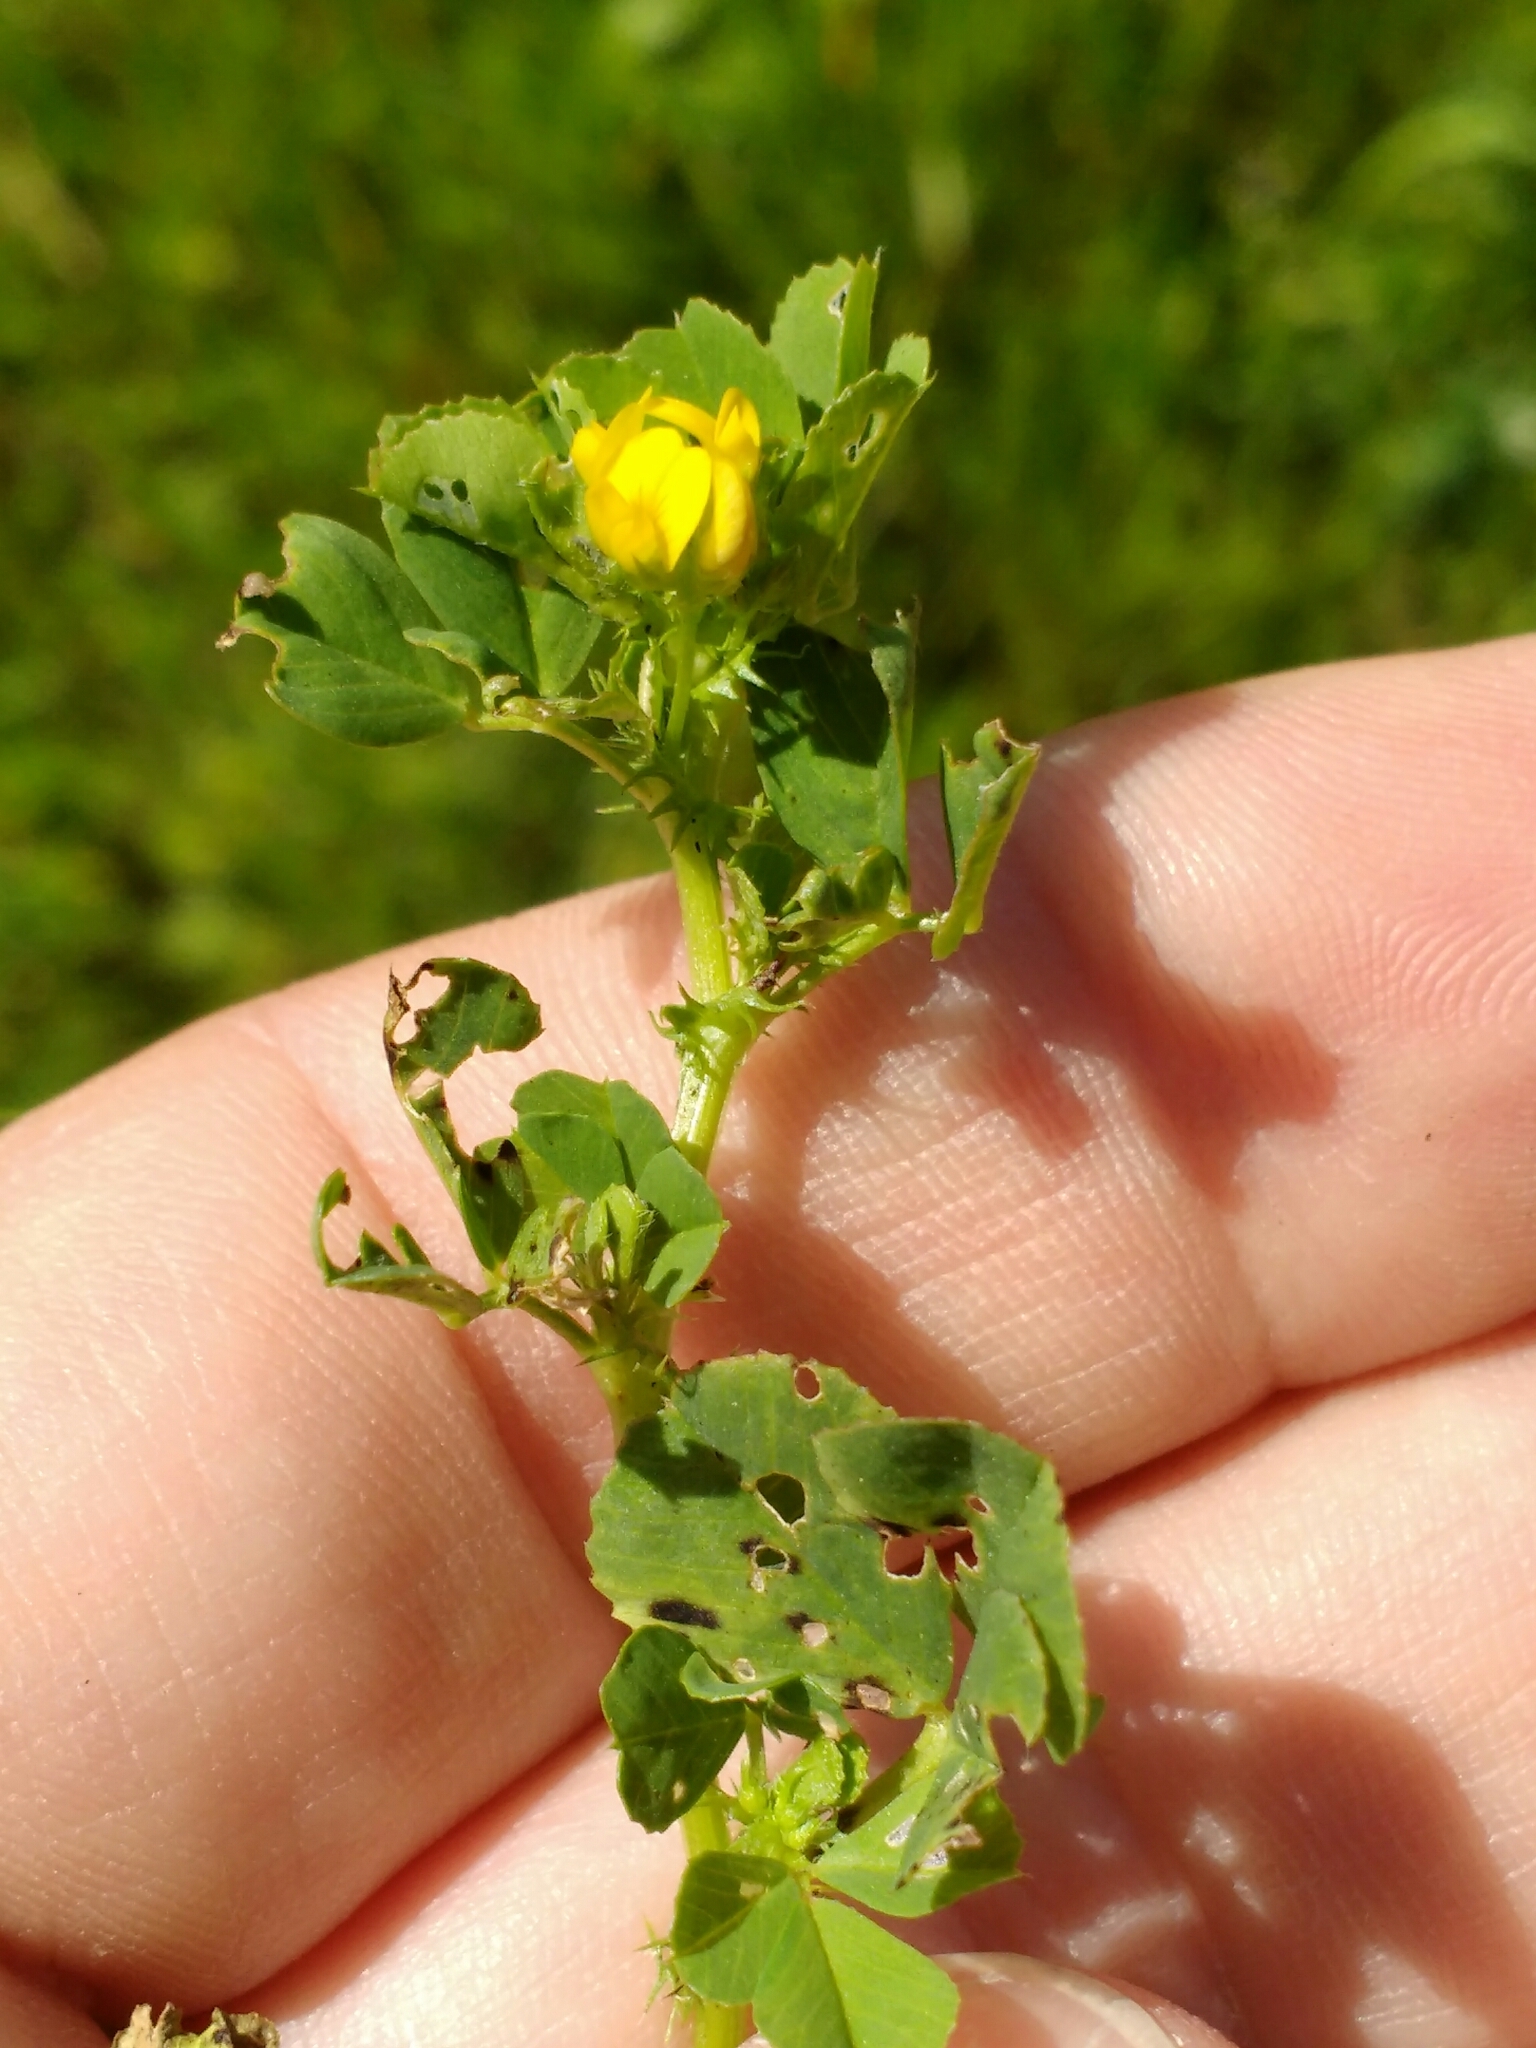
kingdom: Plantae
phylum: Tracheophyta
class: Magnoliopsida
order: Fabales
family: Fabaceae
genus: Medicago
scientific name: Medicago polymorpha
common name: Burclover
